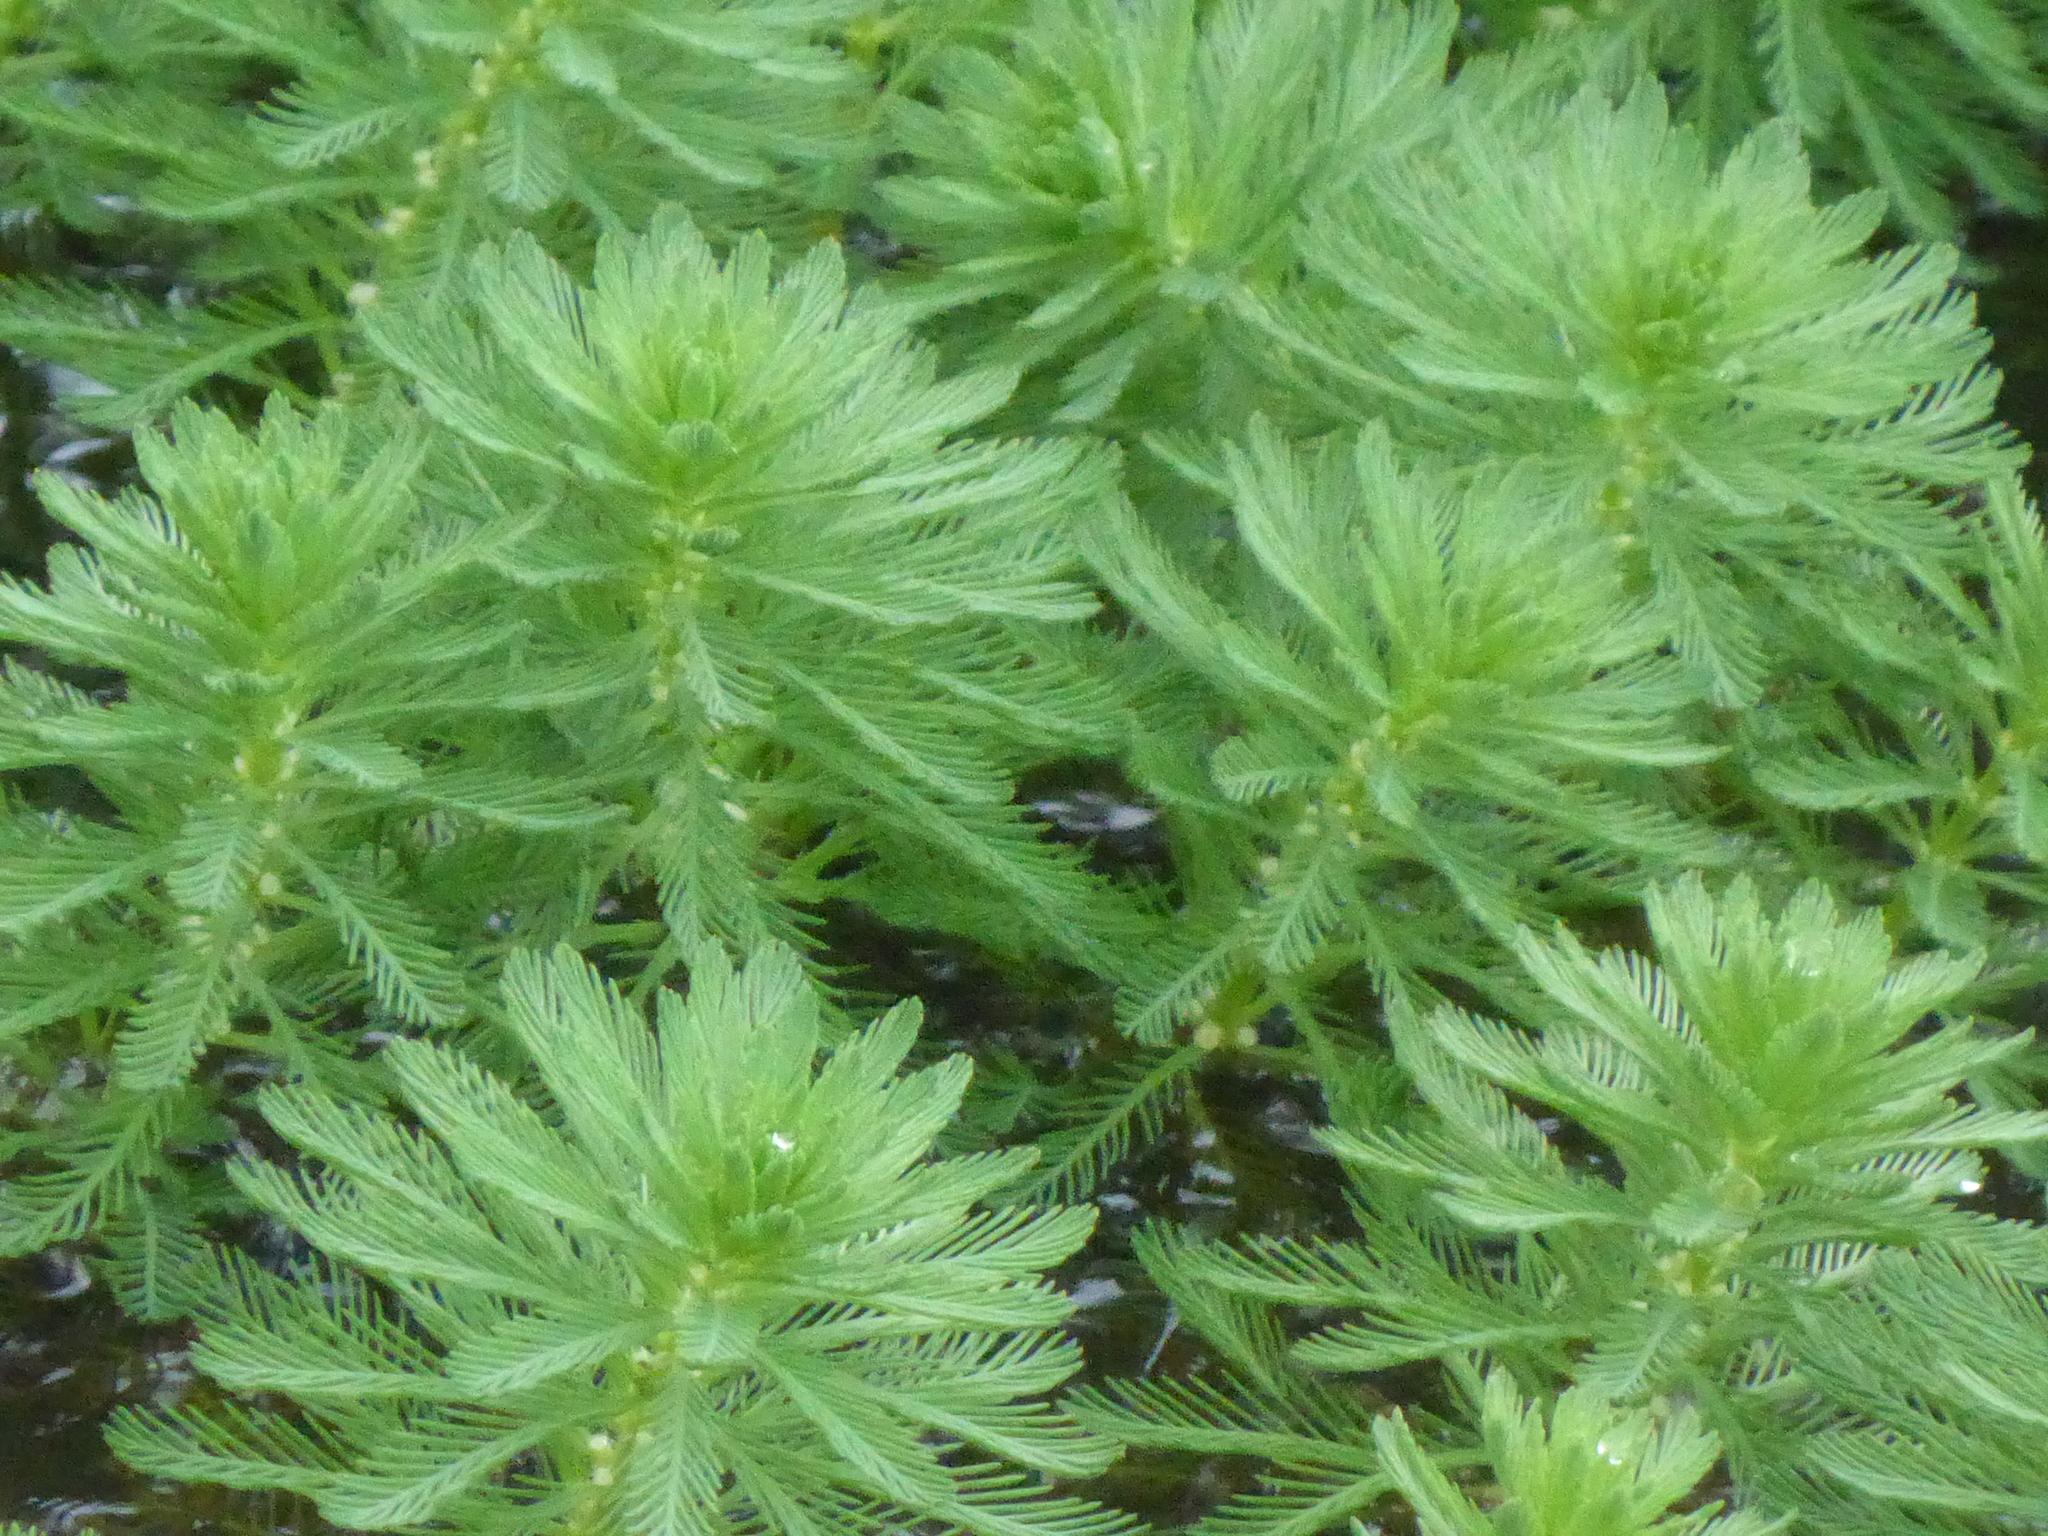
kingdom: Plantae
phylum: Tracheophyta
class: Magnoliopsida
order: Saxifragales
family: Haloragaceae
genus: Myriophyllum
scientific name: Myriophyllum aquaticum
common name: Parrot's feather
